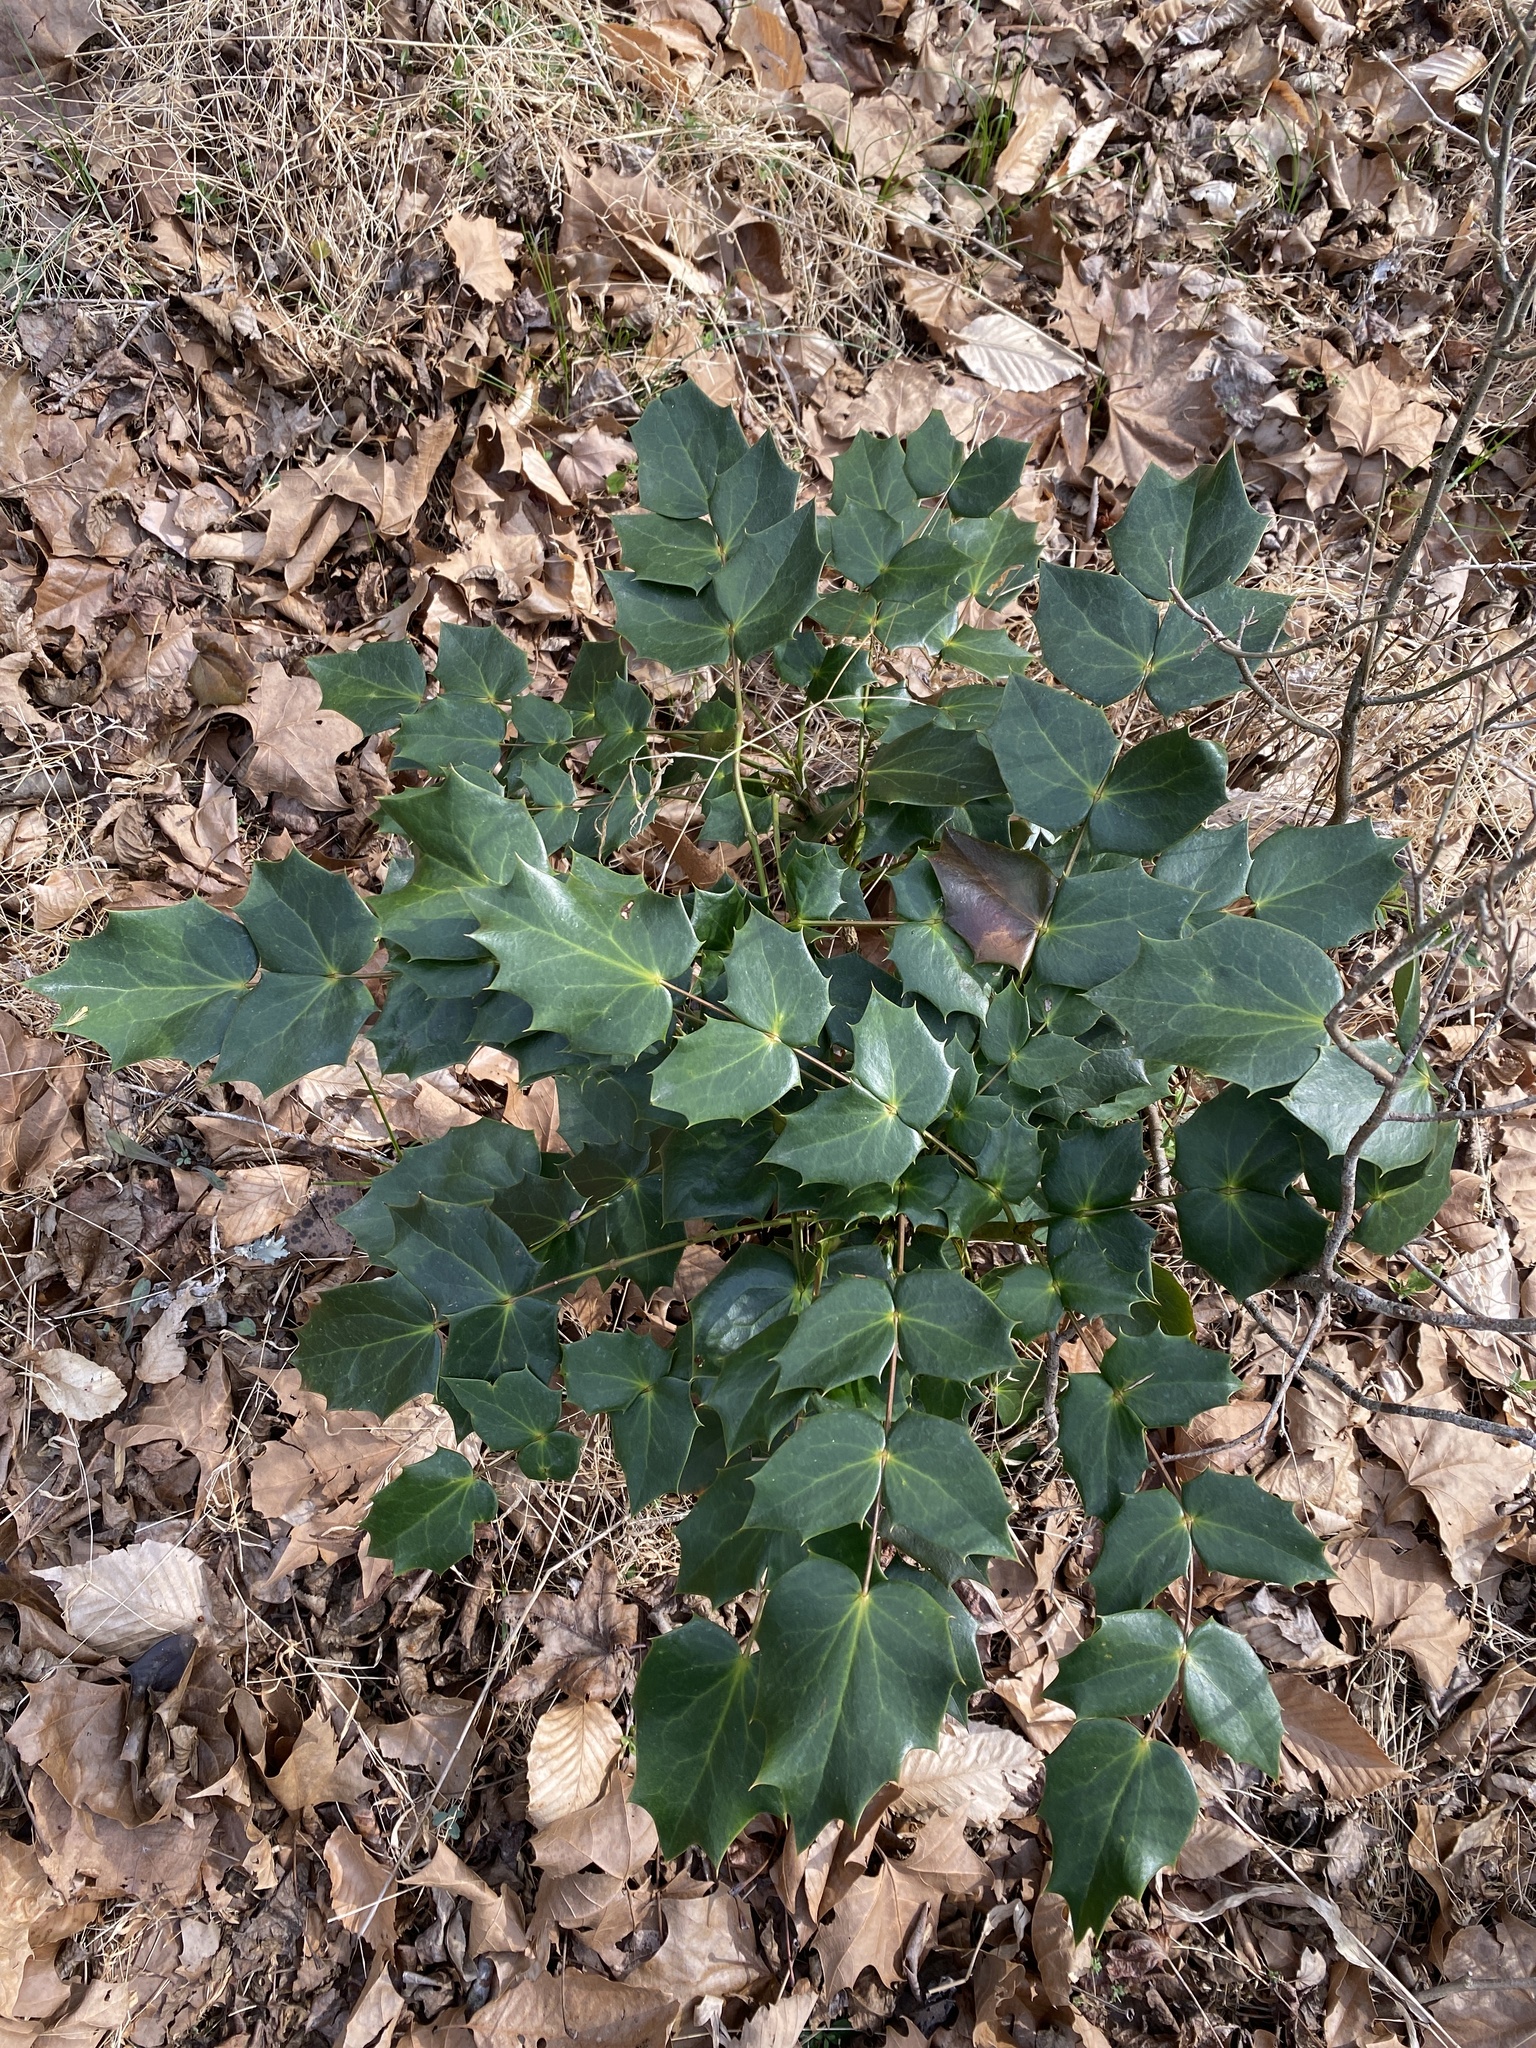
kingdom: Plantae
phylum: Tracheophyta
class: Magnoliopsida
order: Ranunculales
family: Berberidaceae
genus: Mahonia
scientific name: Mahonia bealei
